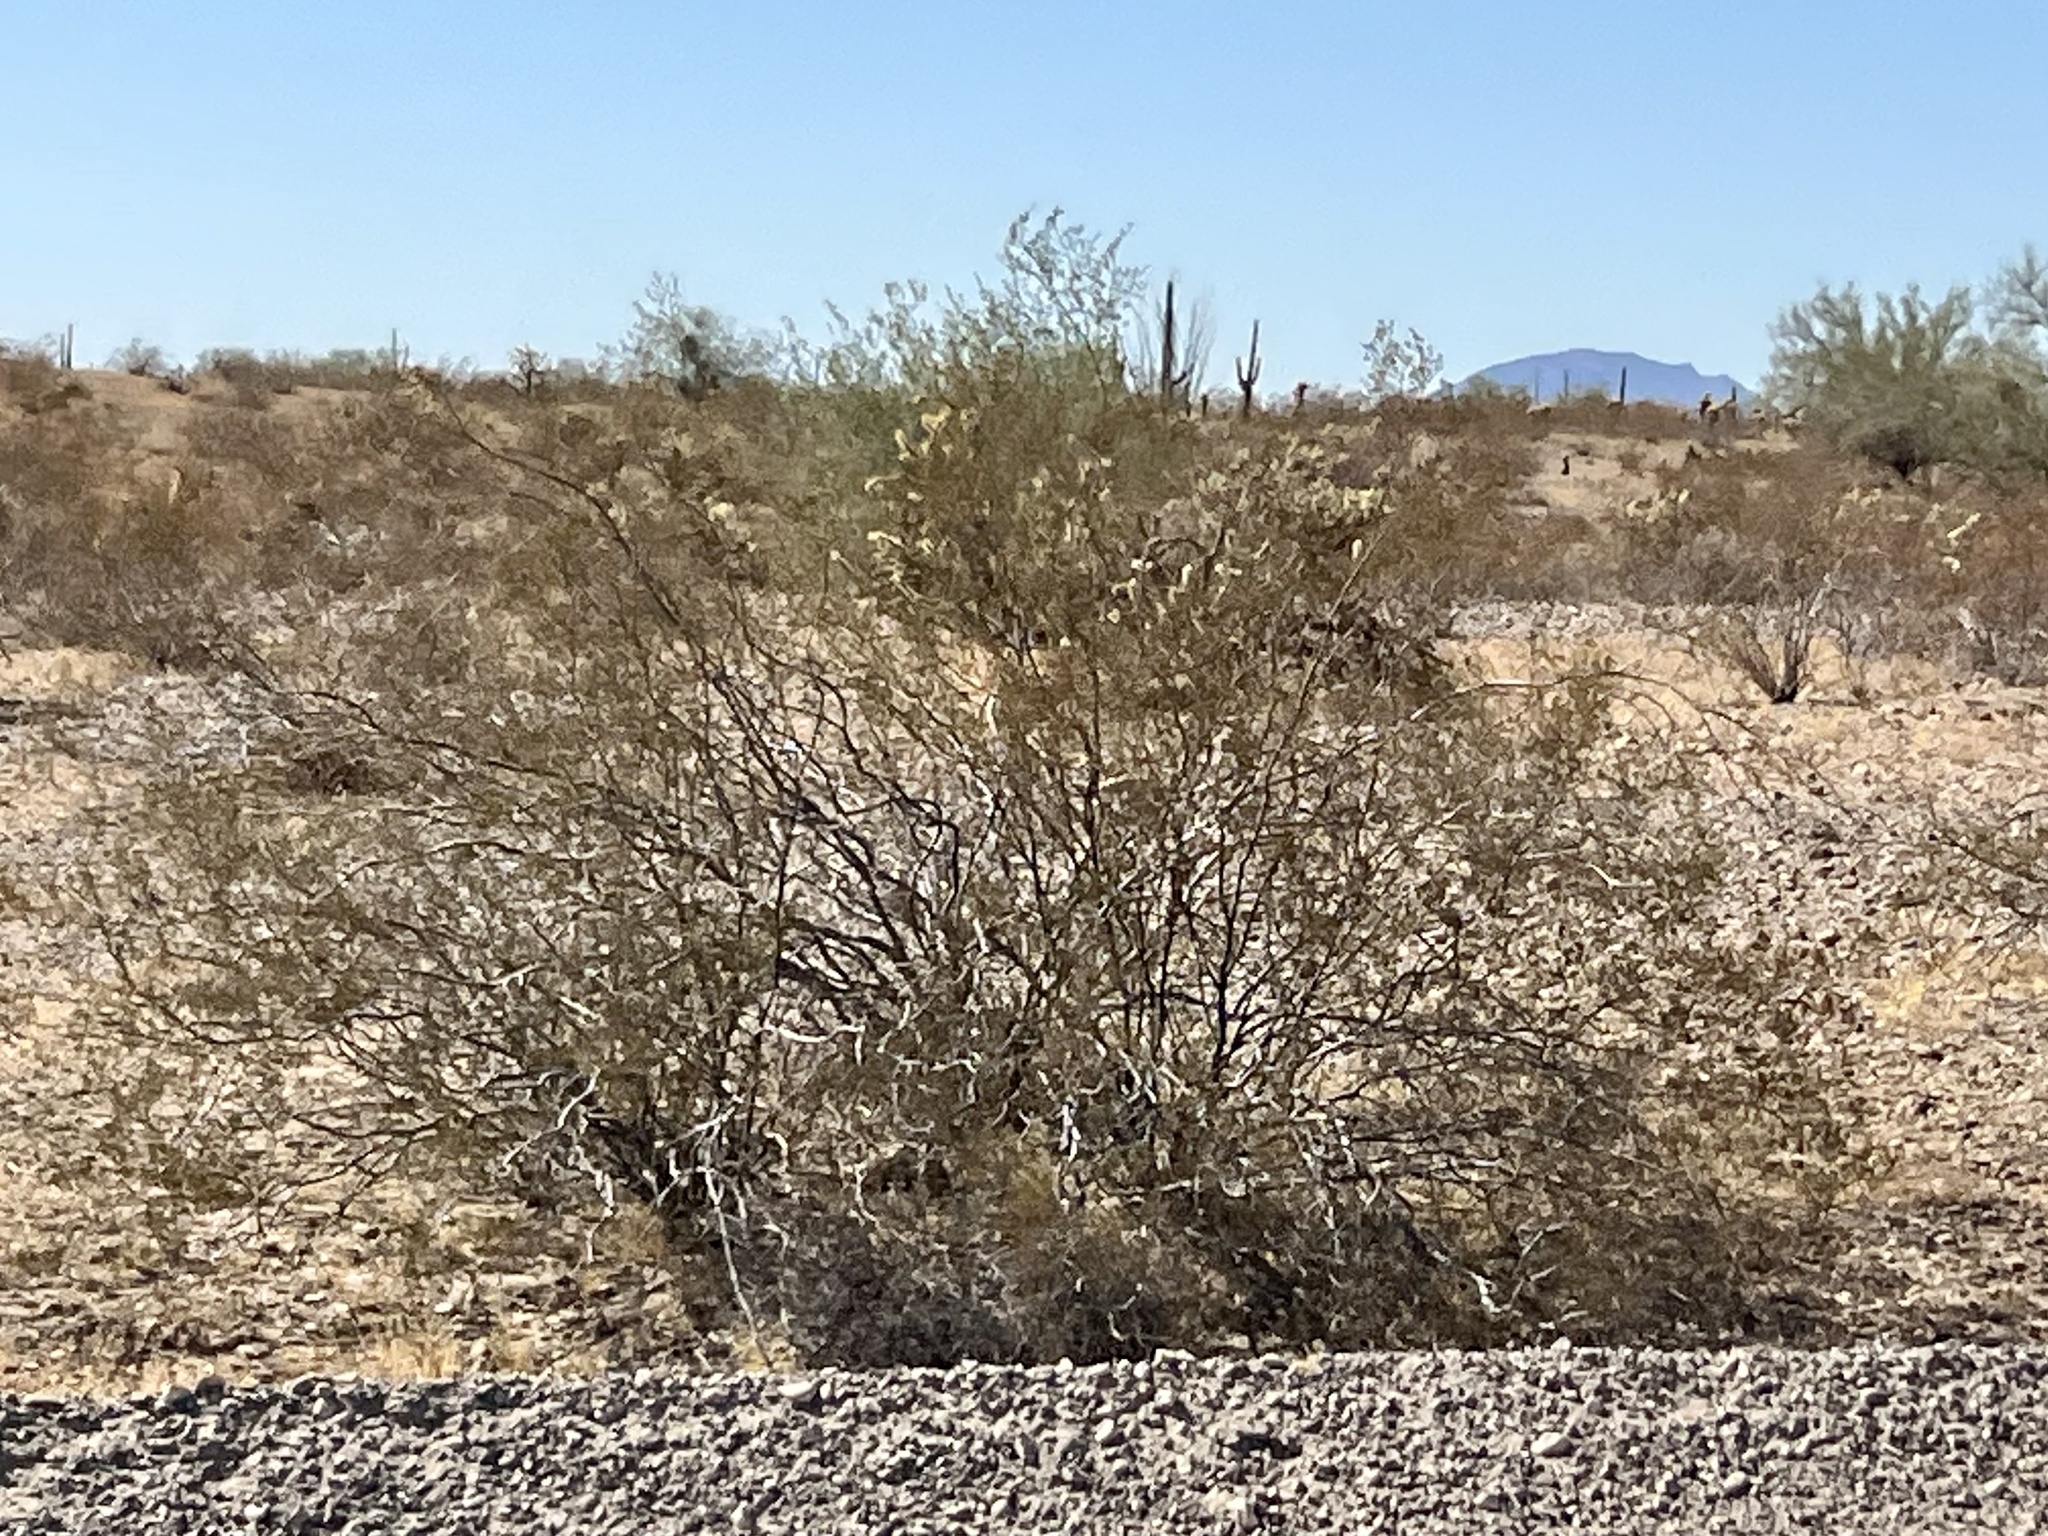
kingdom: Plantae
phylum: Tracheophyta
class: Magnoliopsida
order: Zygophyllales
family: Zygophyllaceae
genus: Larrea
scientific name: Larrea tridentata
